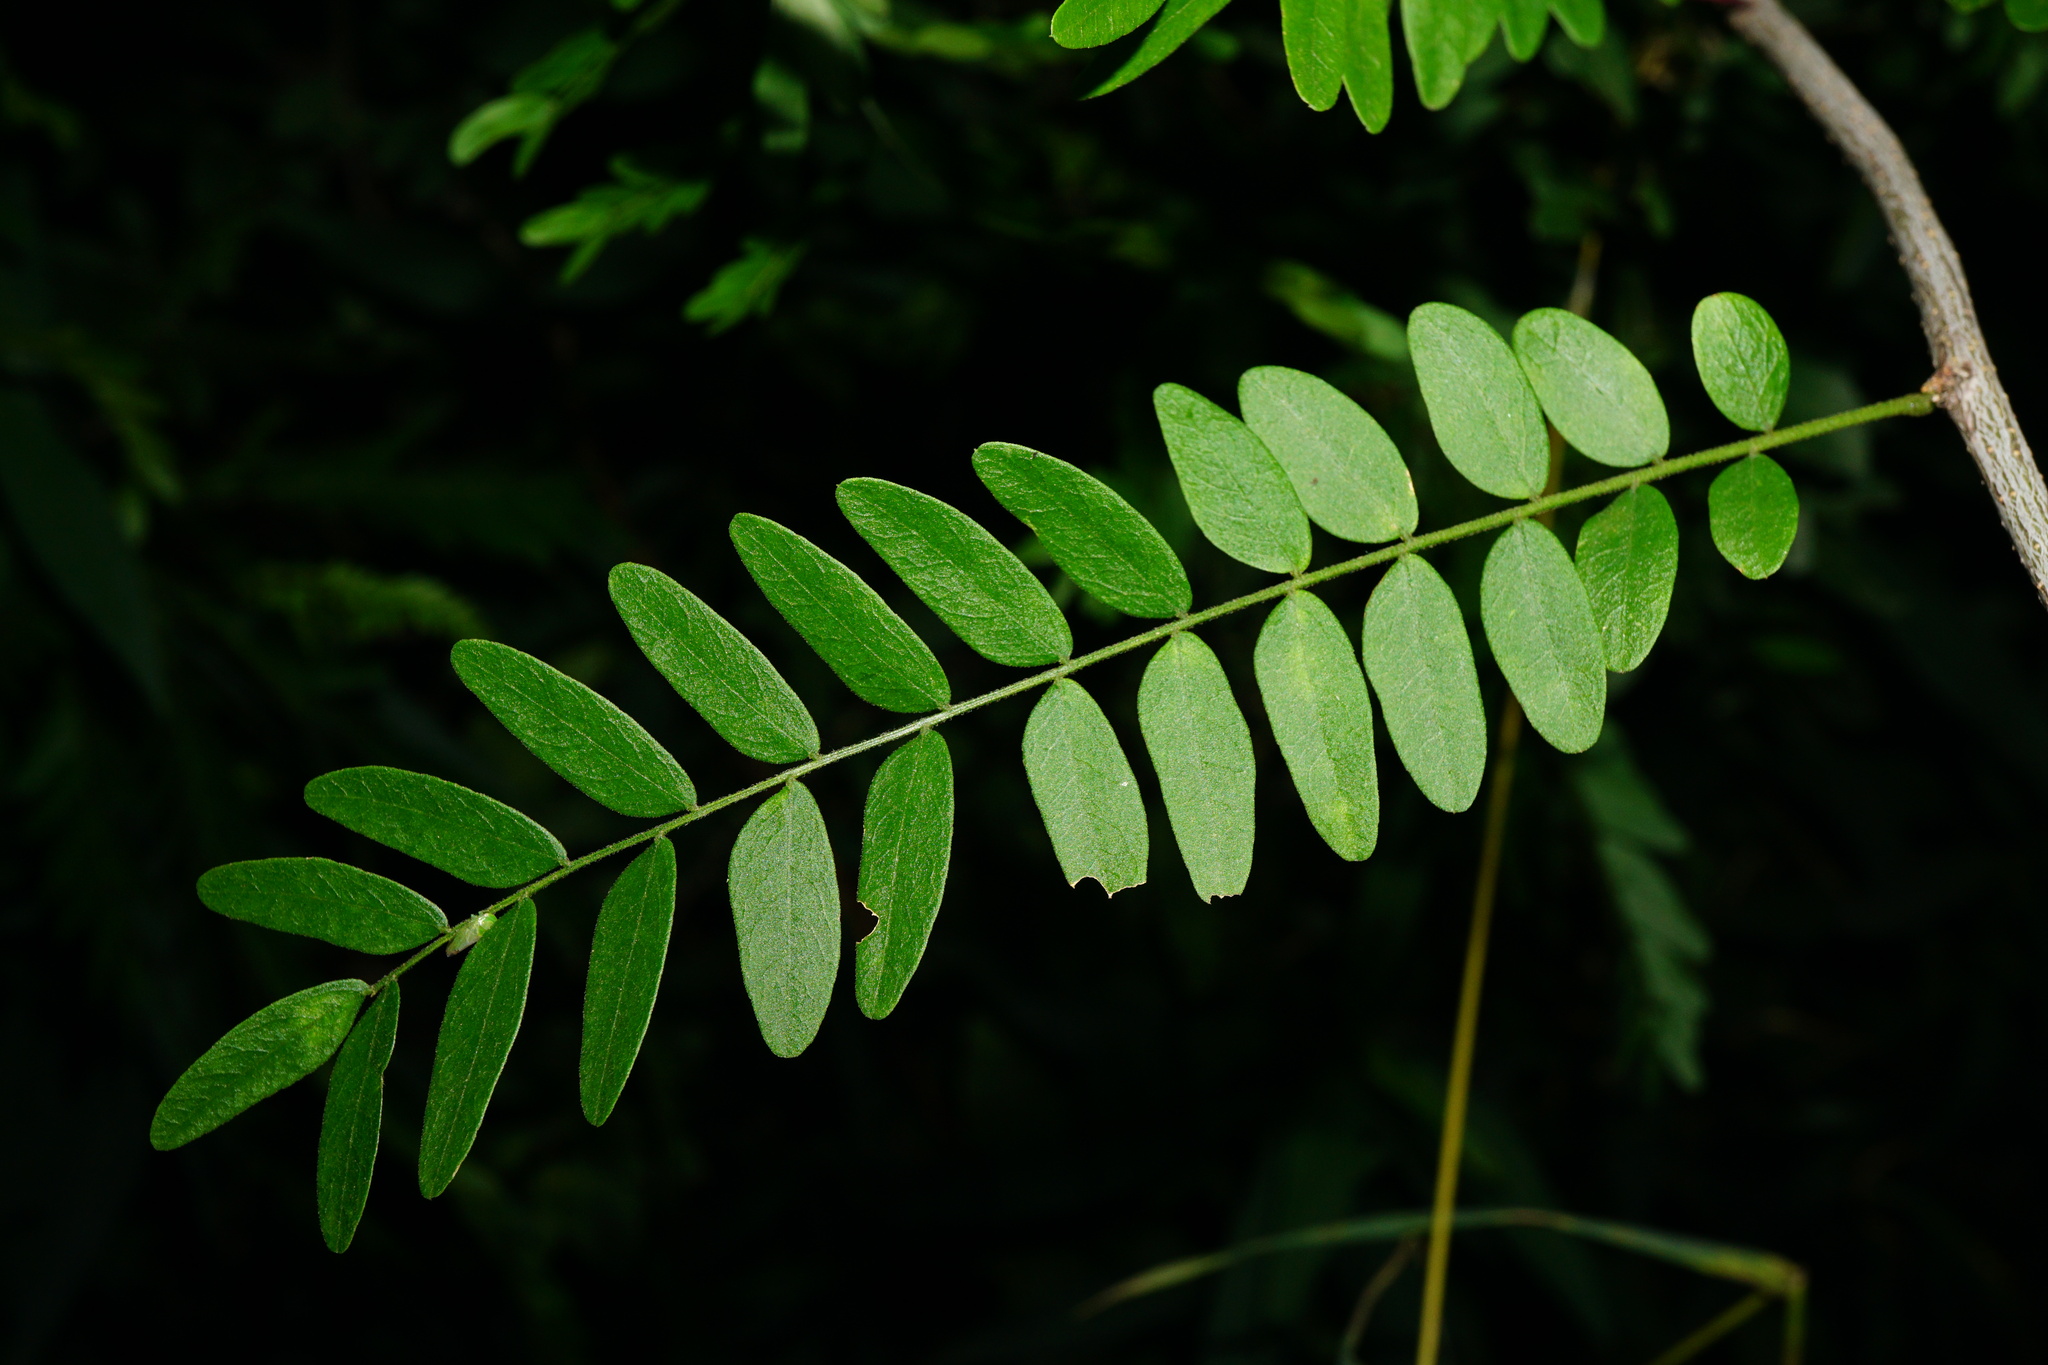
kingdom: Plantae
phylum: Tracheophyta
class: Magnoliopsida
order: Fabales
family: Fabaceae
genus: Gleditsia
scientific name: Gleditsia triacanthos
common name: Common honeylocust
